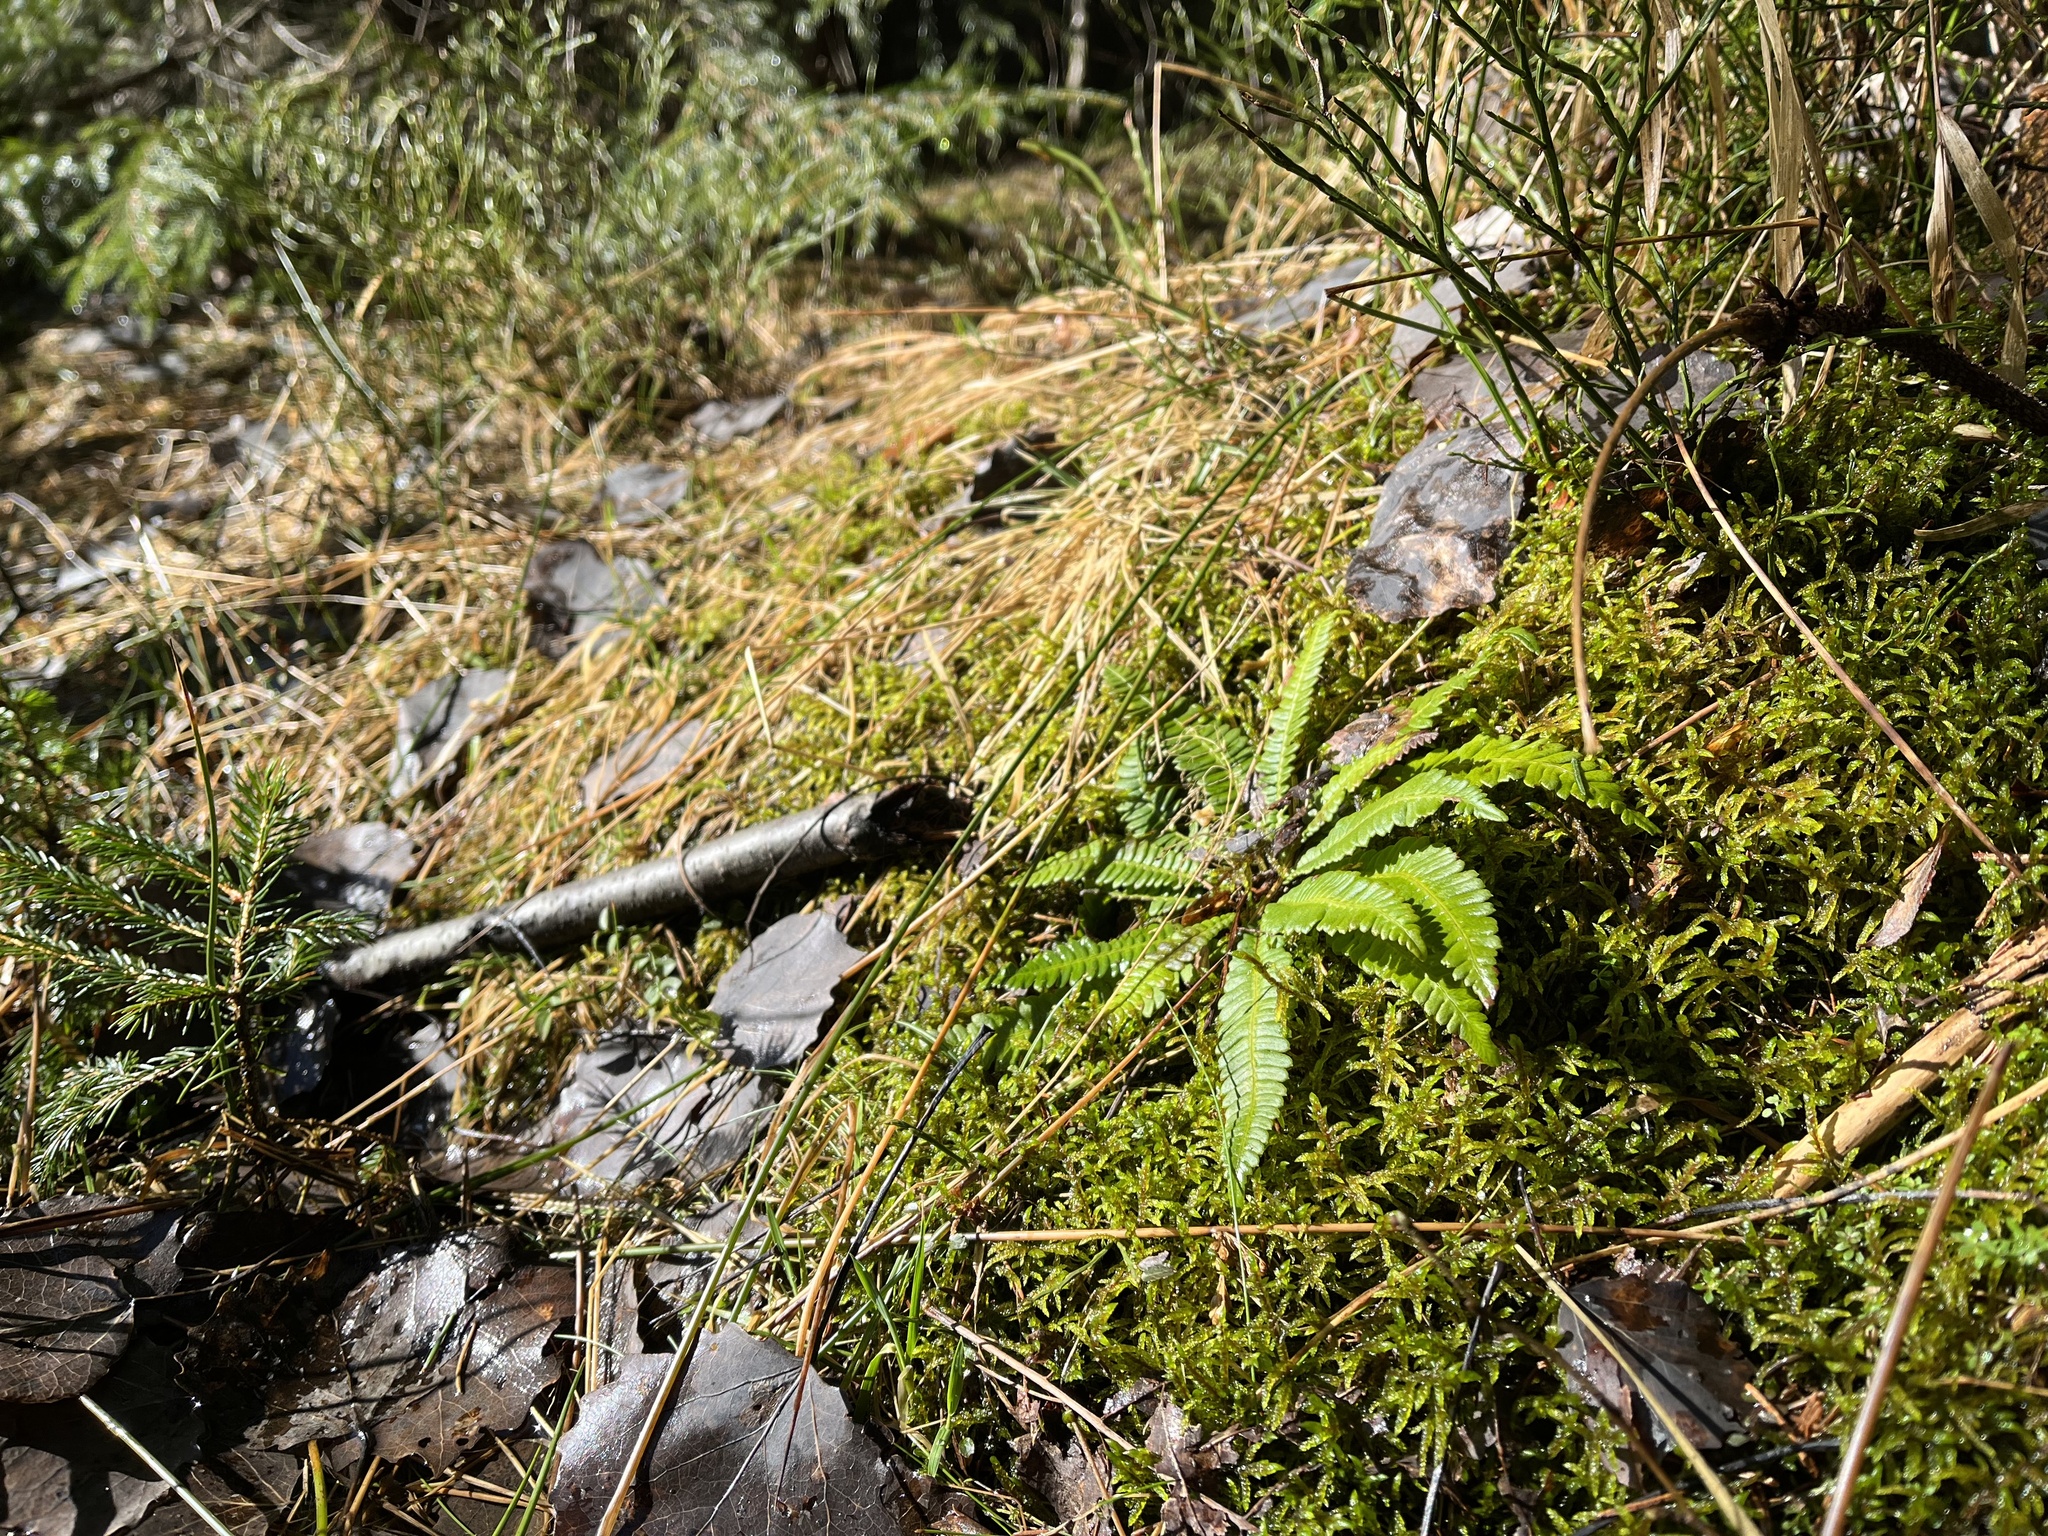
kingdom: Plantae
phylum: Tracheophyta
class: Polypodiopsida
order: Polypodiales
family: Blechnaceae
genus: Struthiopteris
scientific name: Struthiopteris spicant
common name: Deer fern
